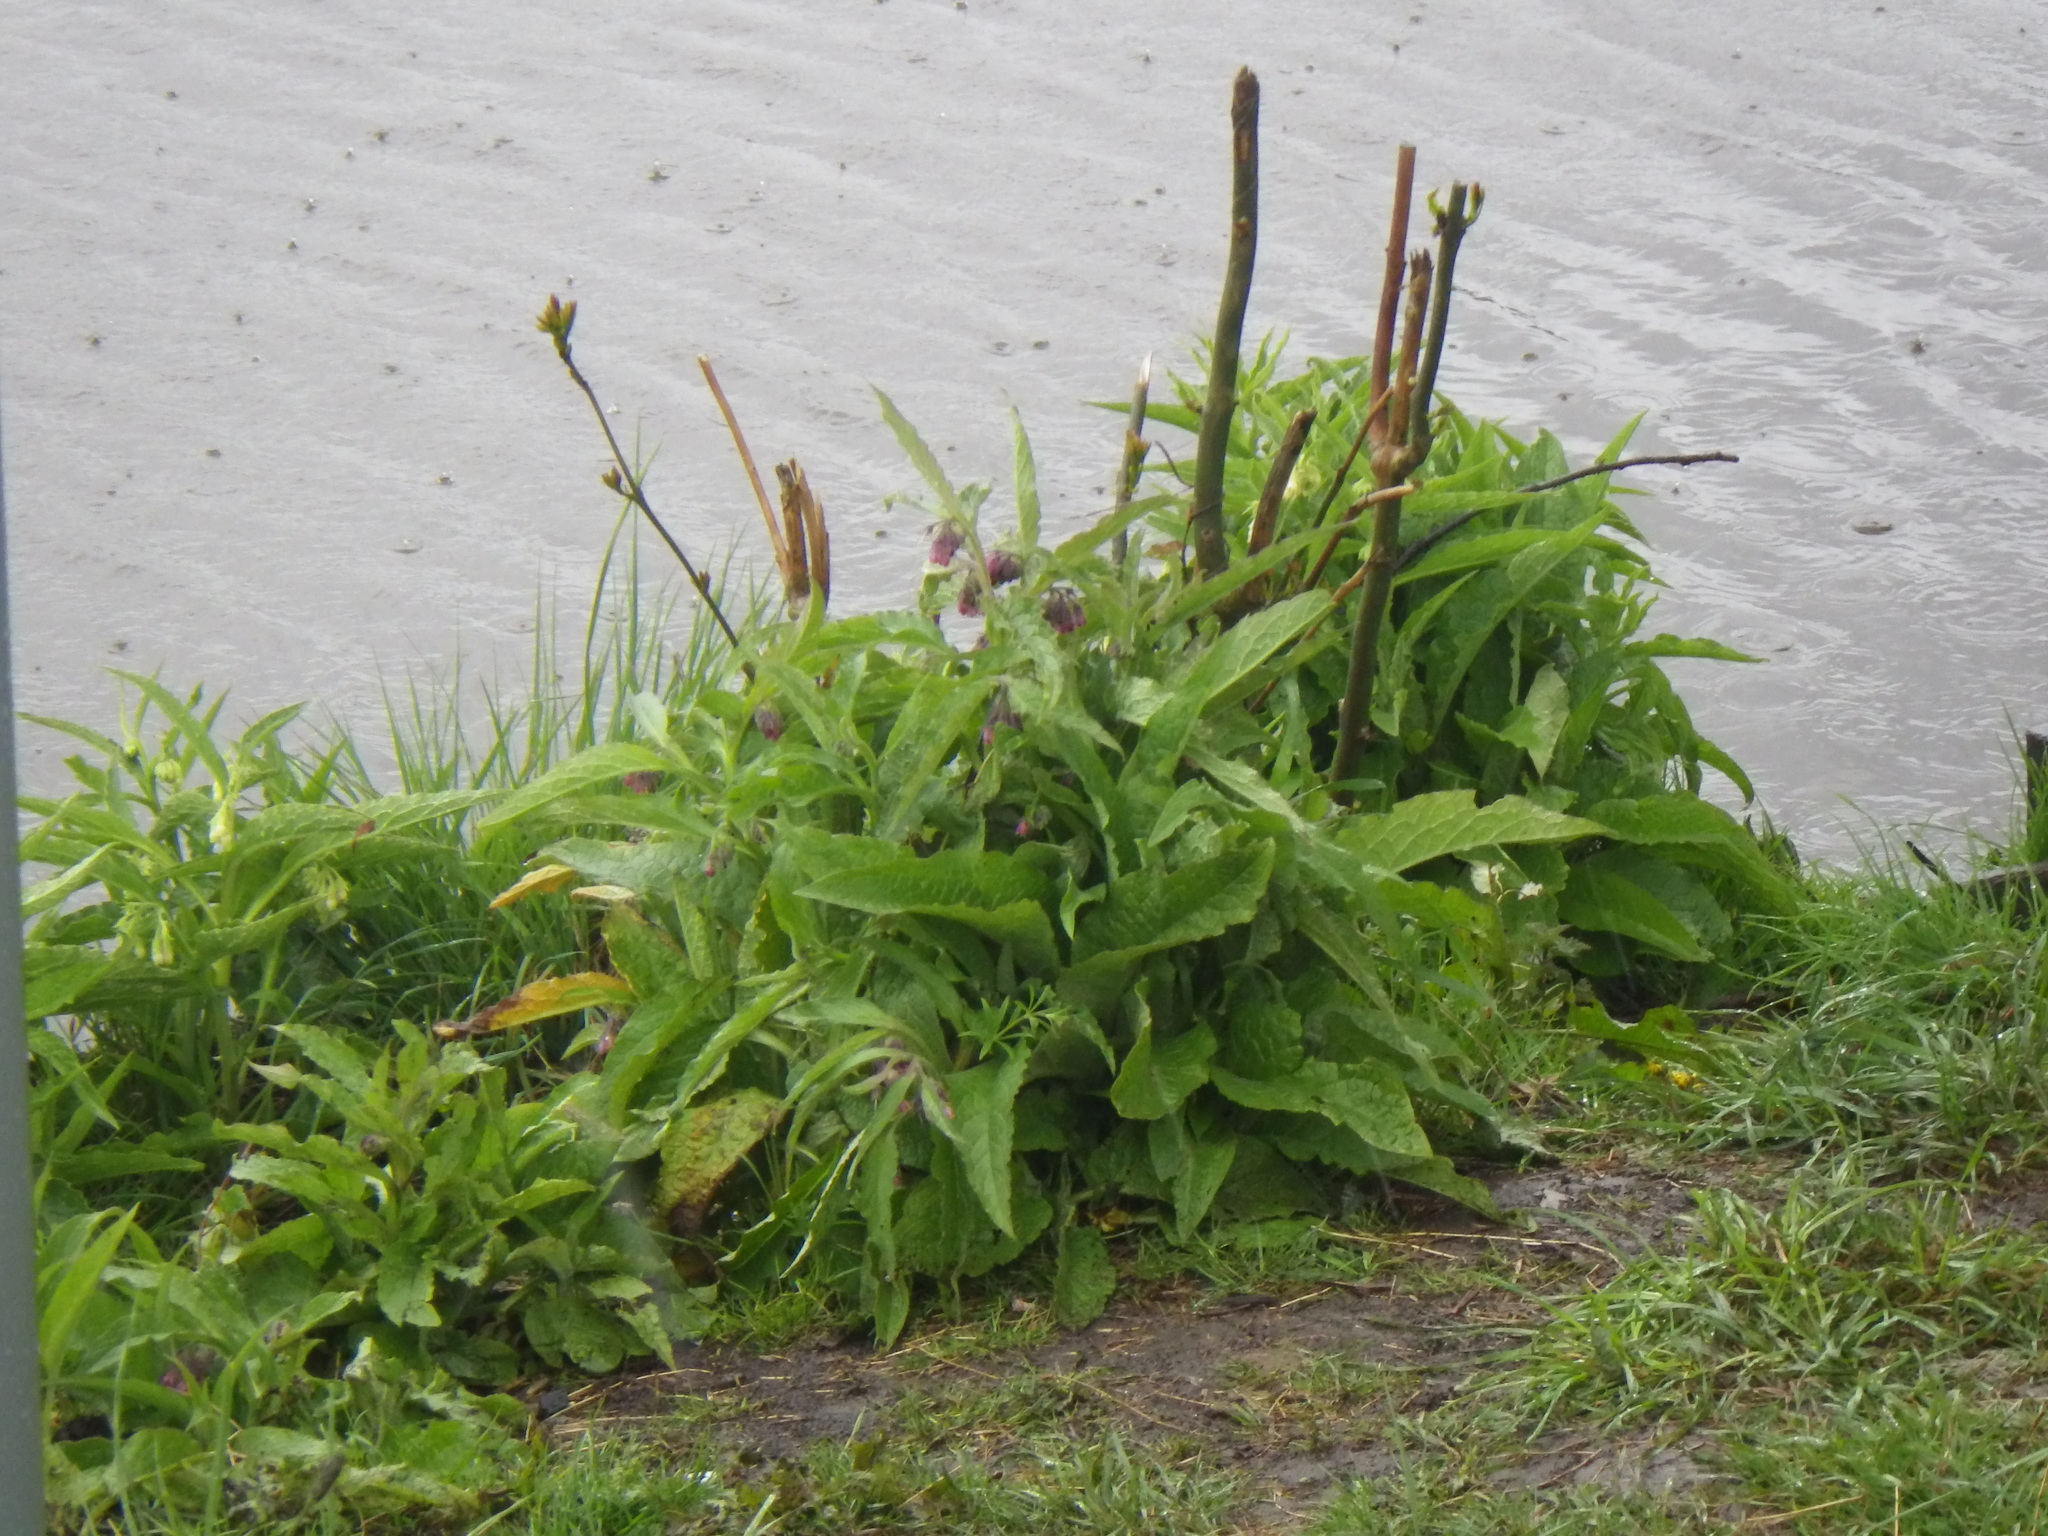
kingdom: Plantae
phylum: Tracheophyta
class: Magnoliopsida
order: Boraginales
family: Boraginaceae
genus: Symphytum
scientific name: Symphytum officinale
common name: Common comfrey
